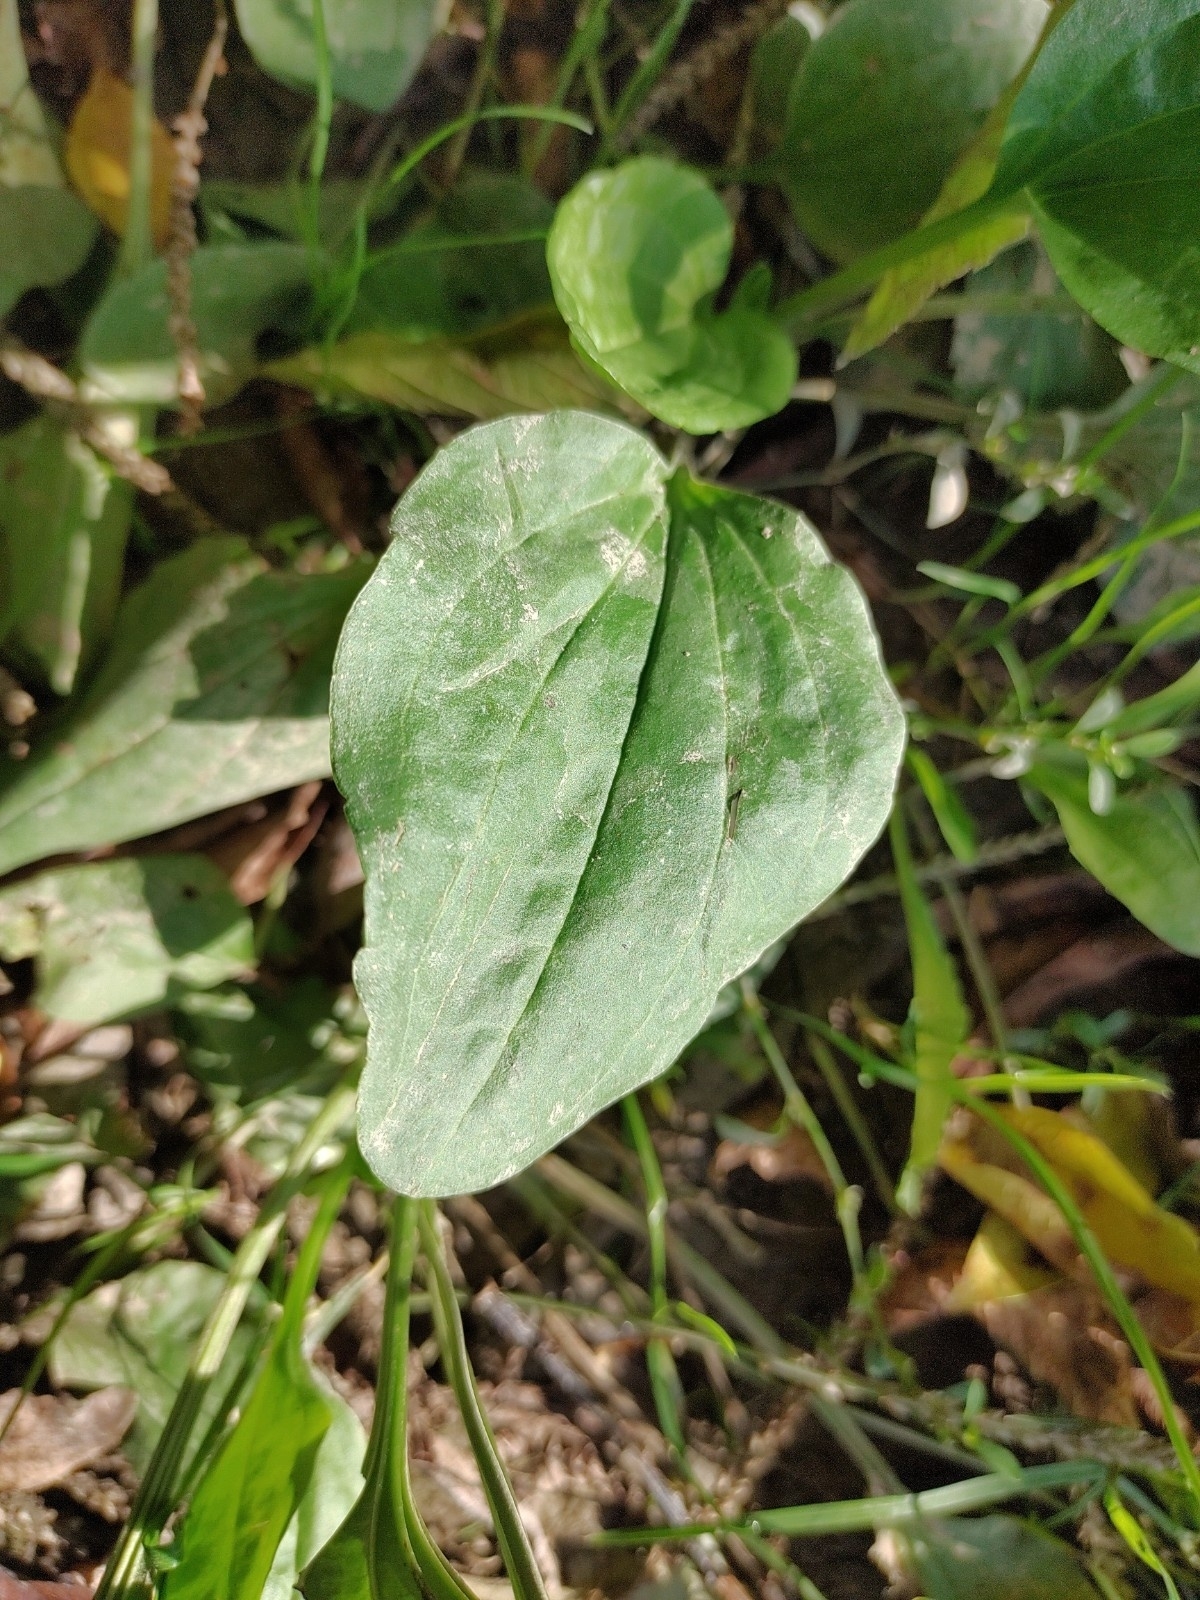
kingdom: Plantae
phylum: Tracheophyta
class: Magnoliopsida
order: Lamiales
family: Plantaginaceae
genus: Plantago
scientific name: Plantago major
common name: Common plantain
